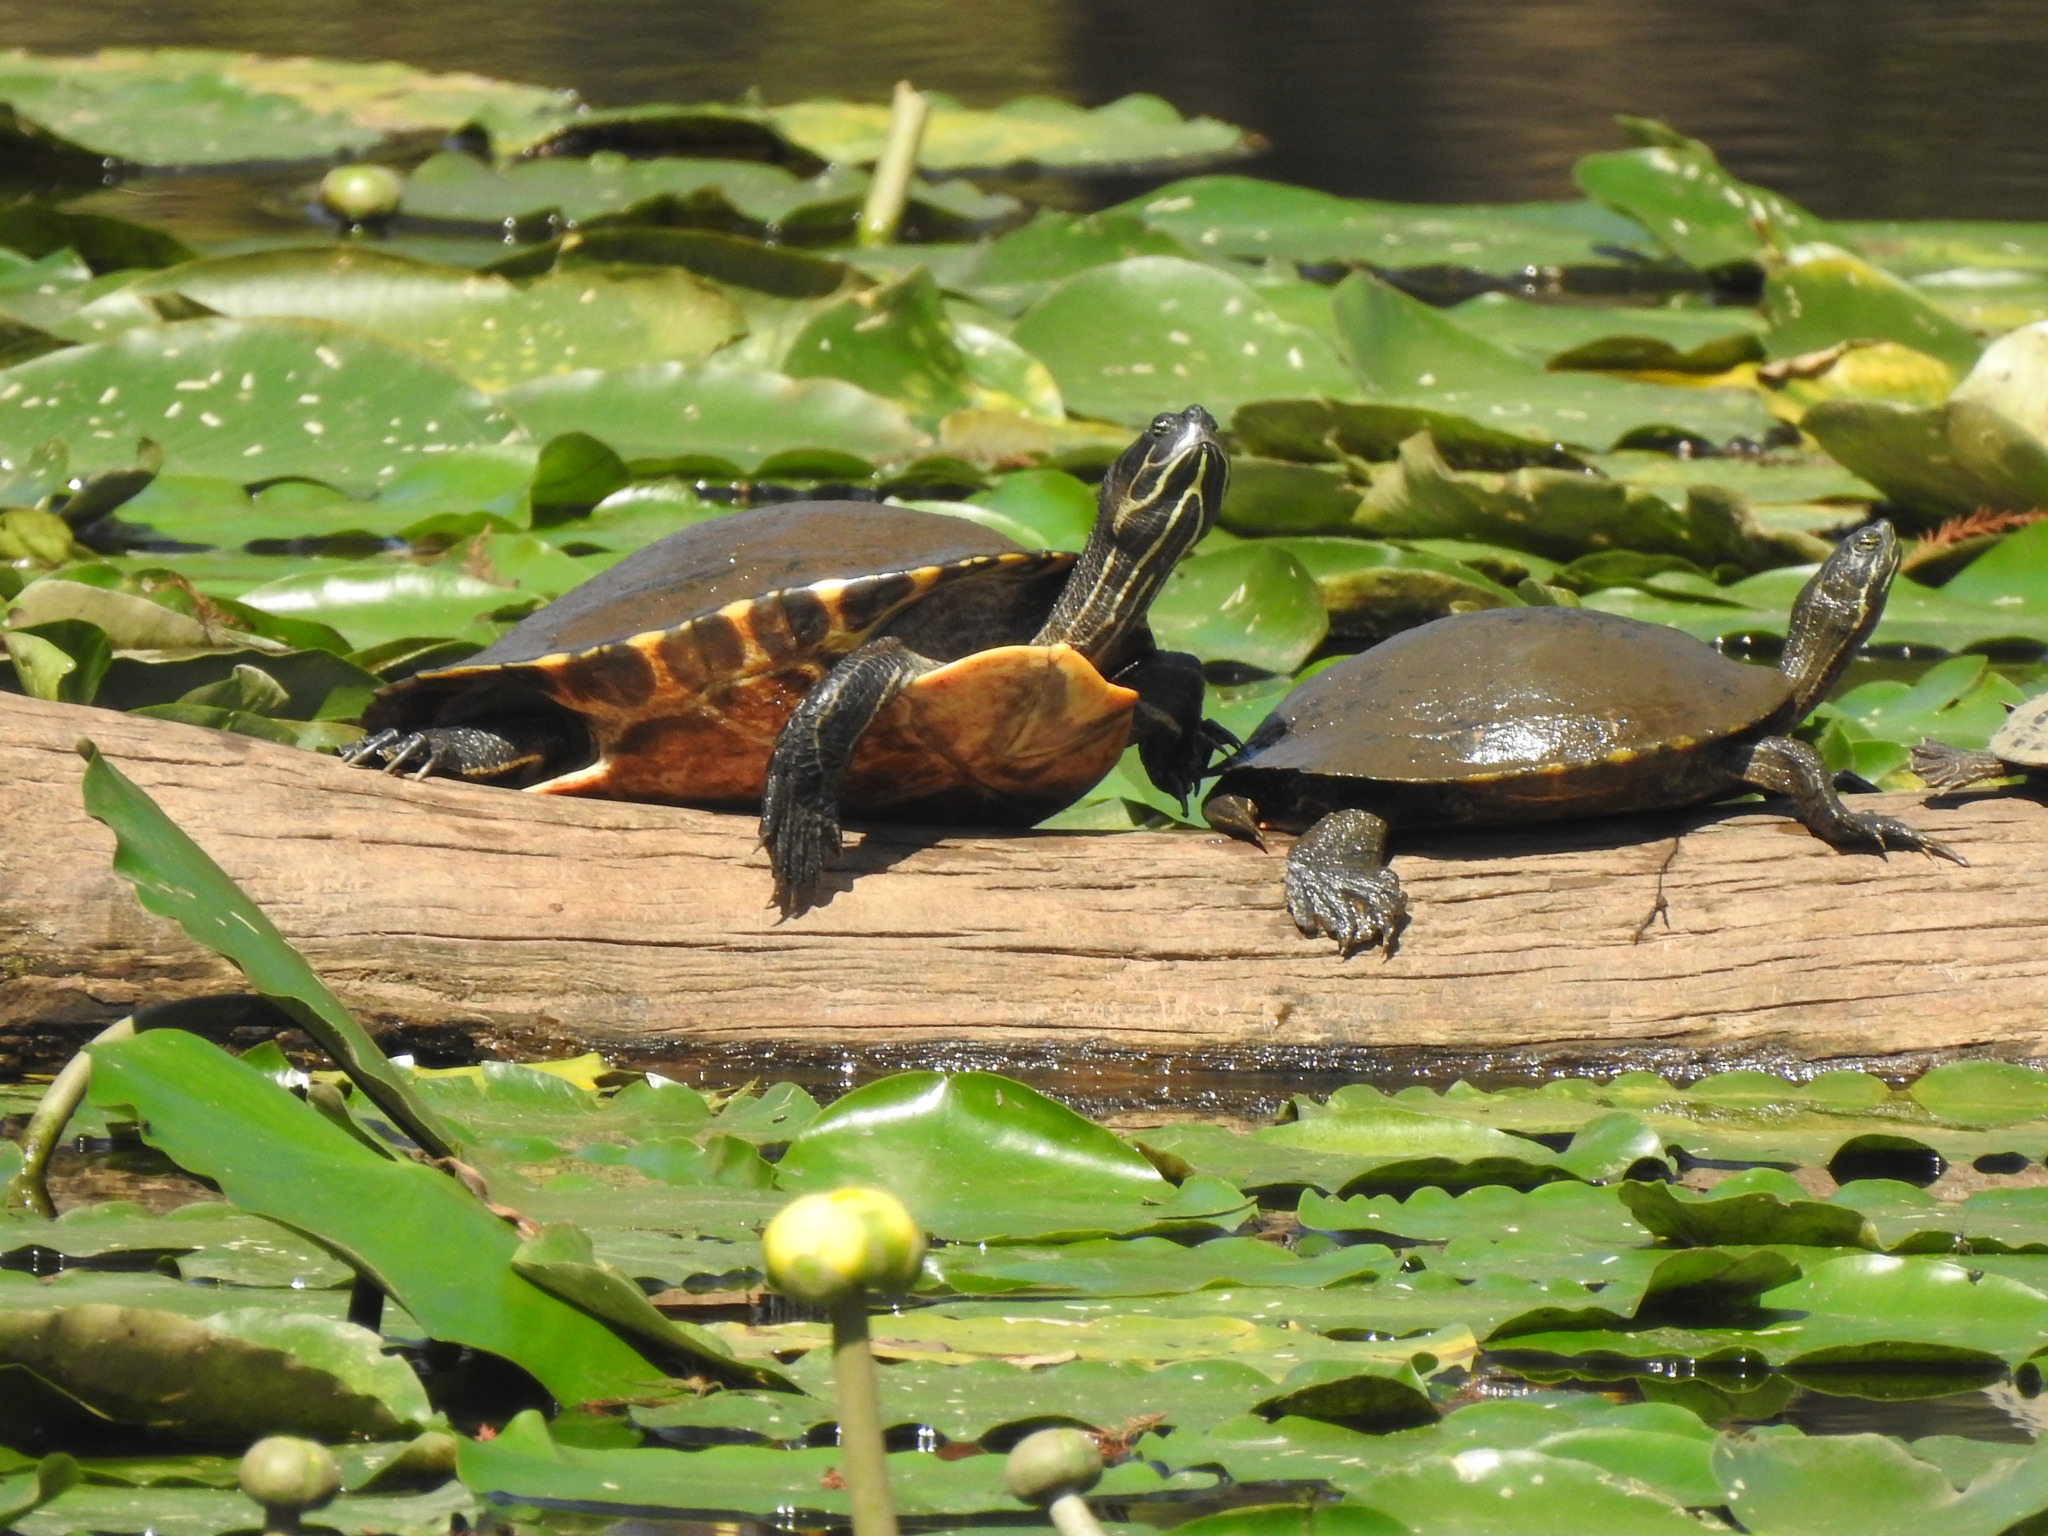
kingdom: Animalia
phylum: Chordata
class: Testudines
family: Emydidae
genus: Pseudemys
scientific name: Pseudemys concinna
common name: Eastern river cooter
